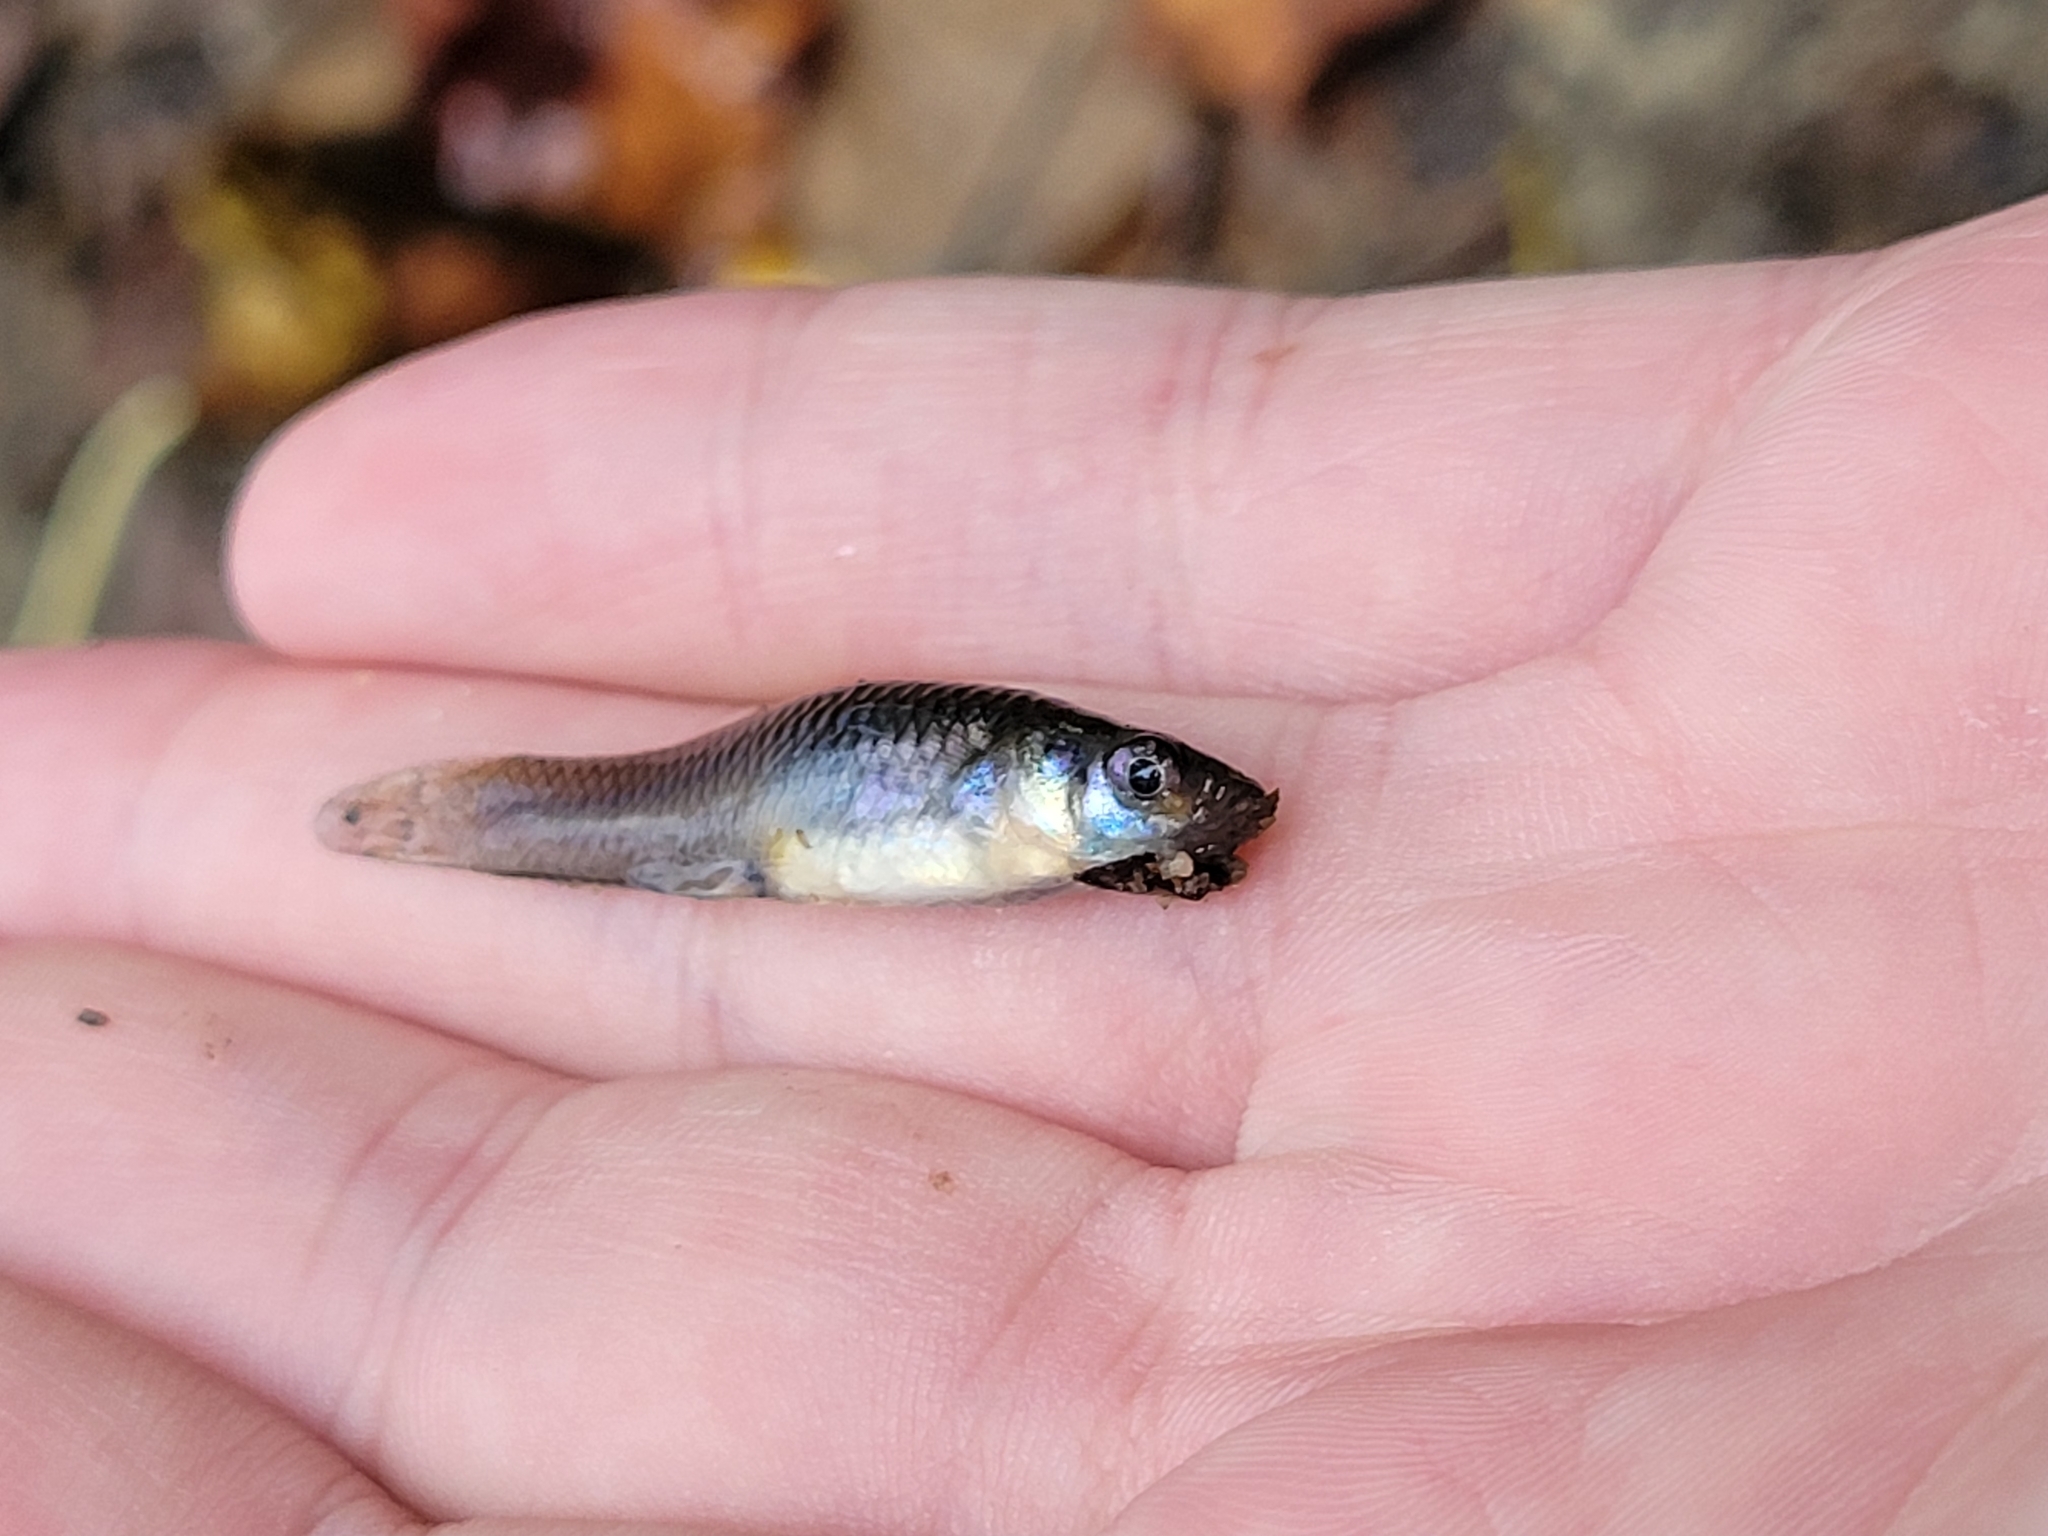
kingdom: Animalia
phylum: Chordata
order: Cyprinodontiformes
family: Poeciliidae
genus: Gambusia
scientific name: Gambusia affinis
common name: Mosquitofish
